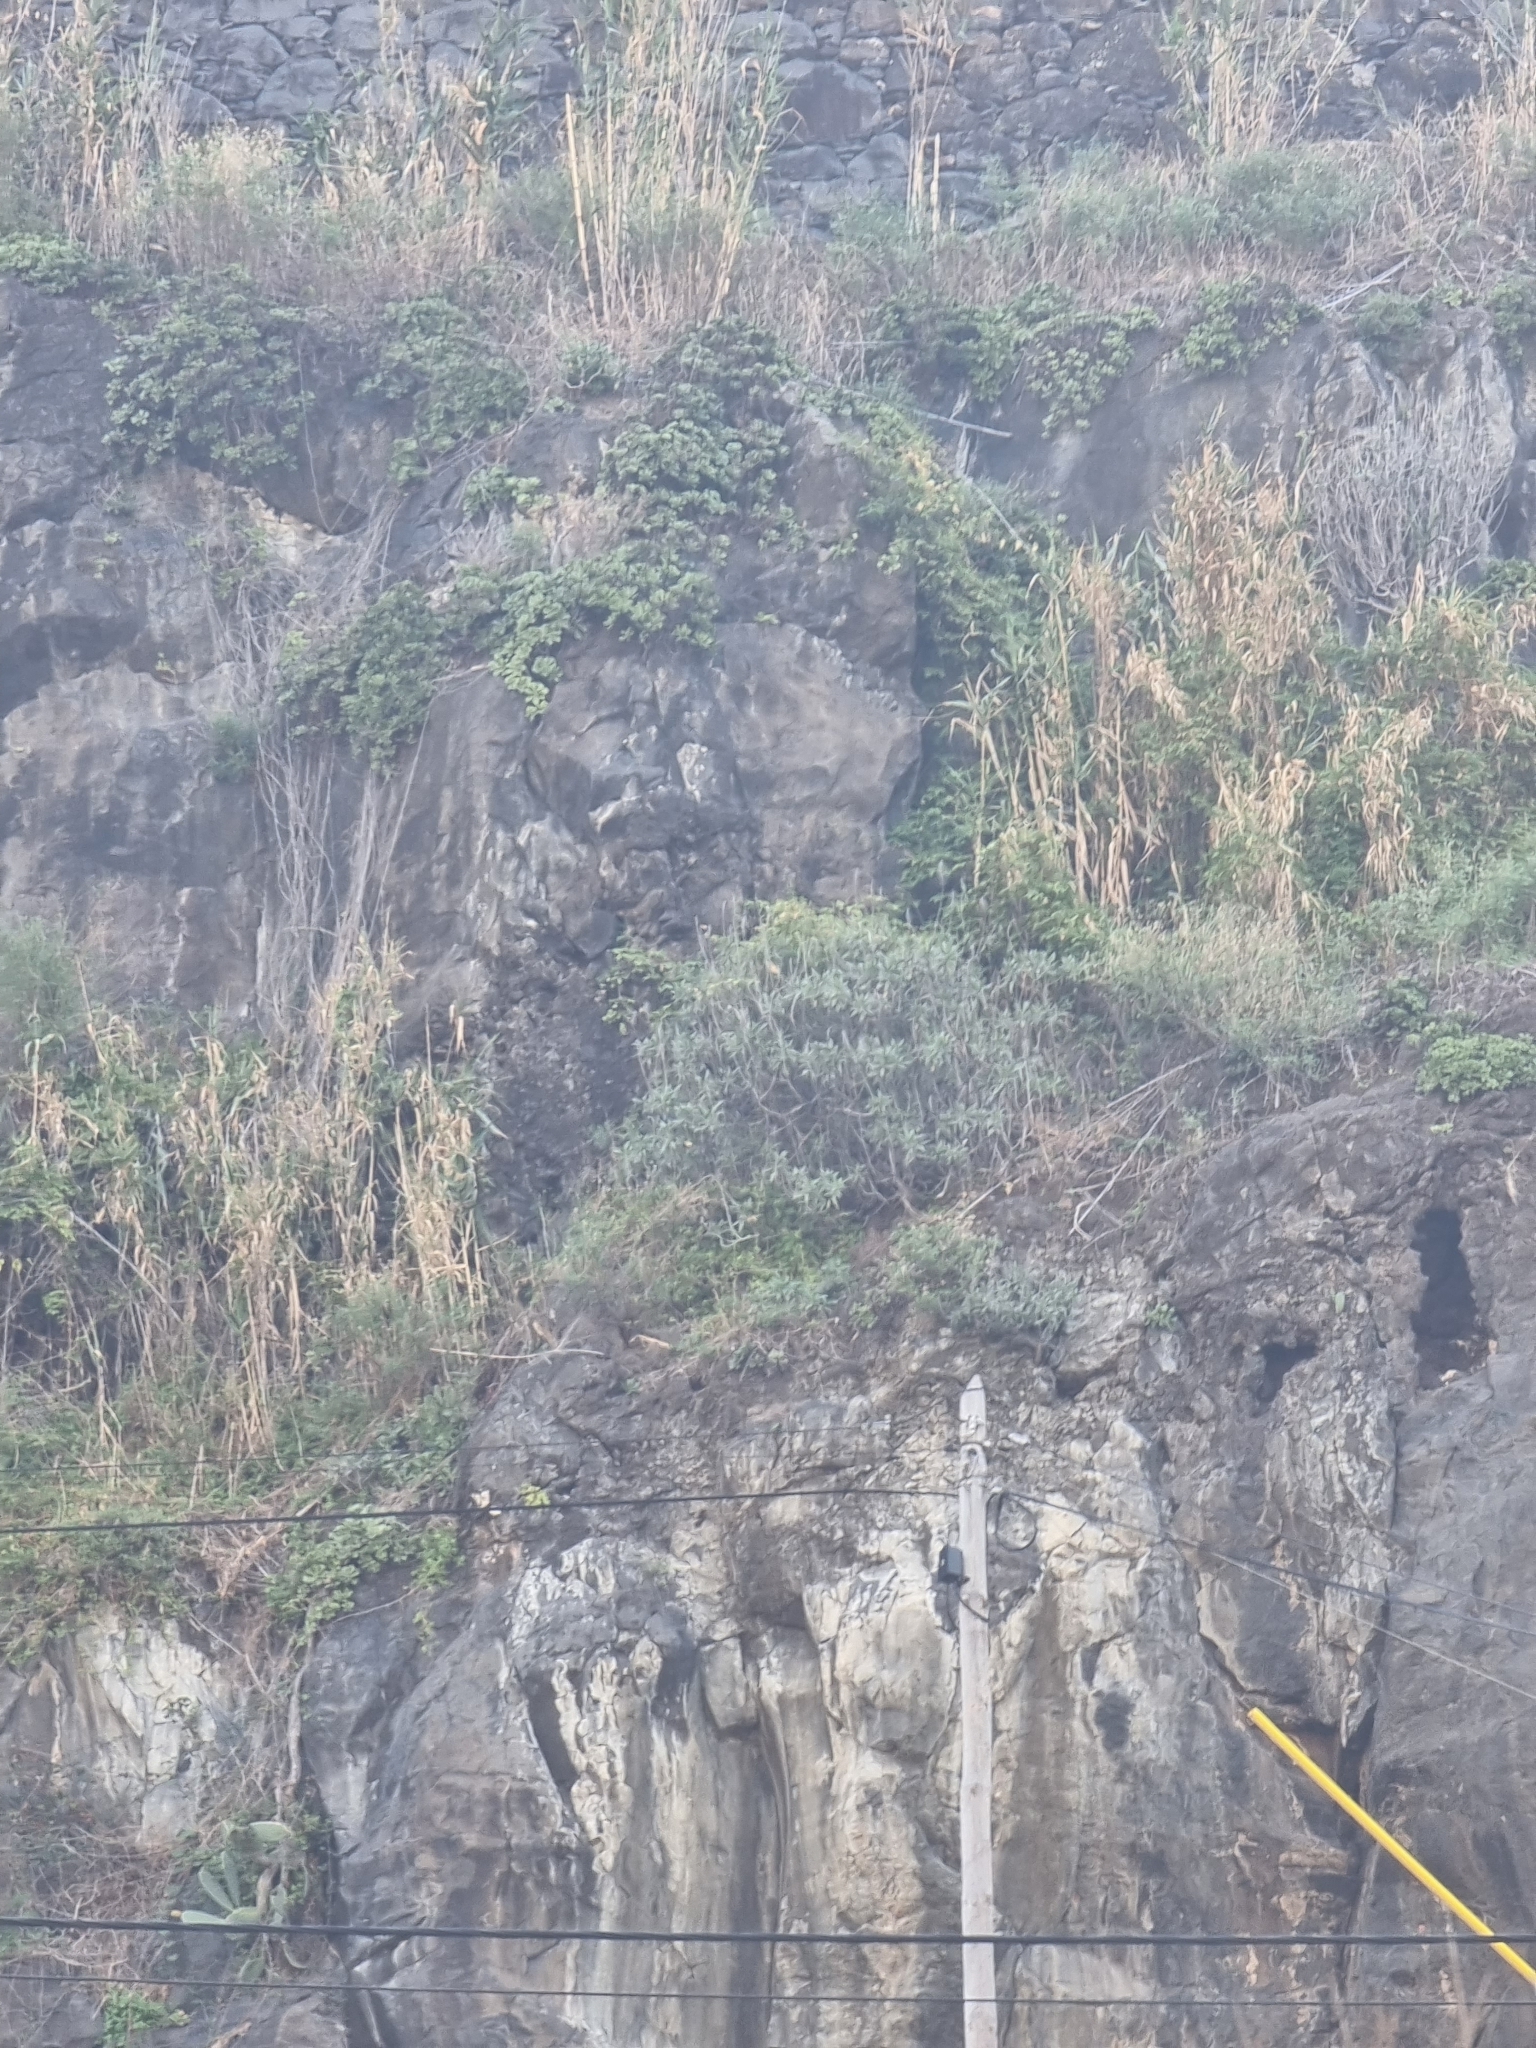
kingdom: Plantae
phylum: Tracheophyta
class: Magnoliopsida
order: Boraginales
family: Boraginaceae
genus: Echium
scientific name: Echium nervosum
